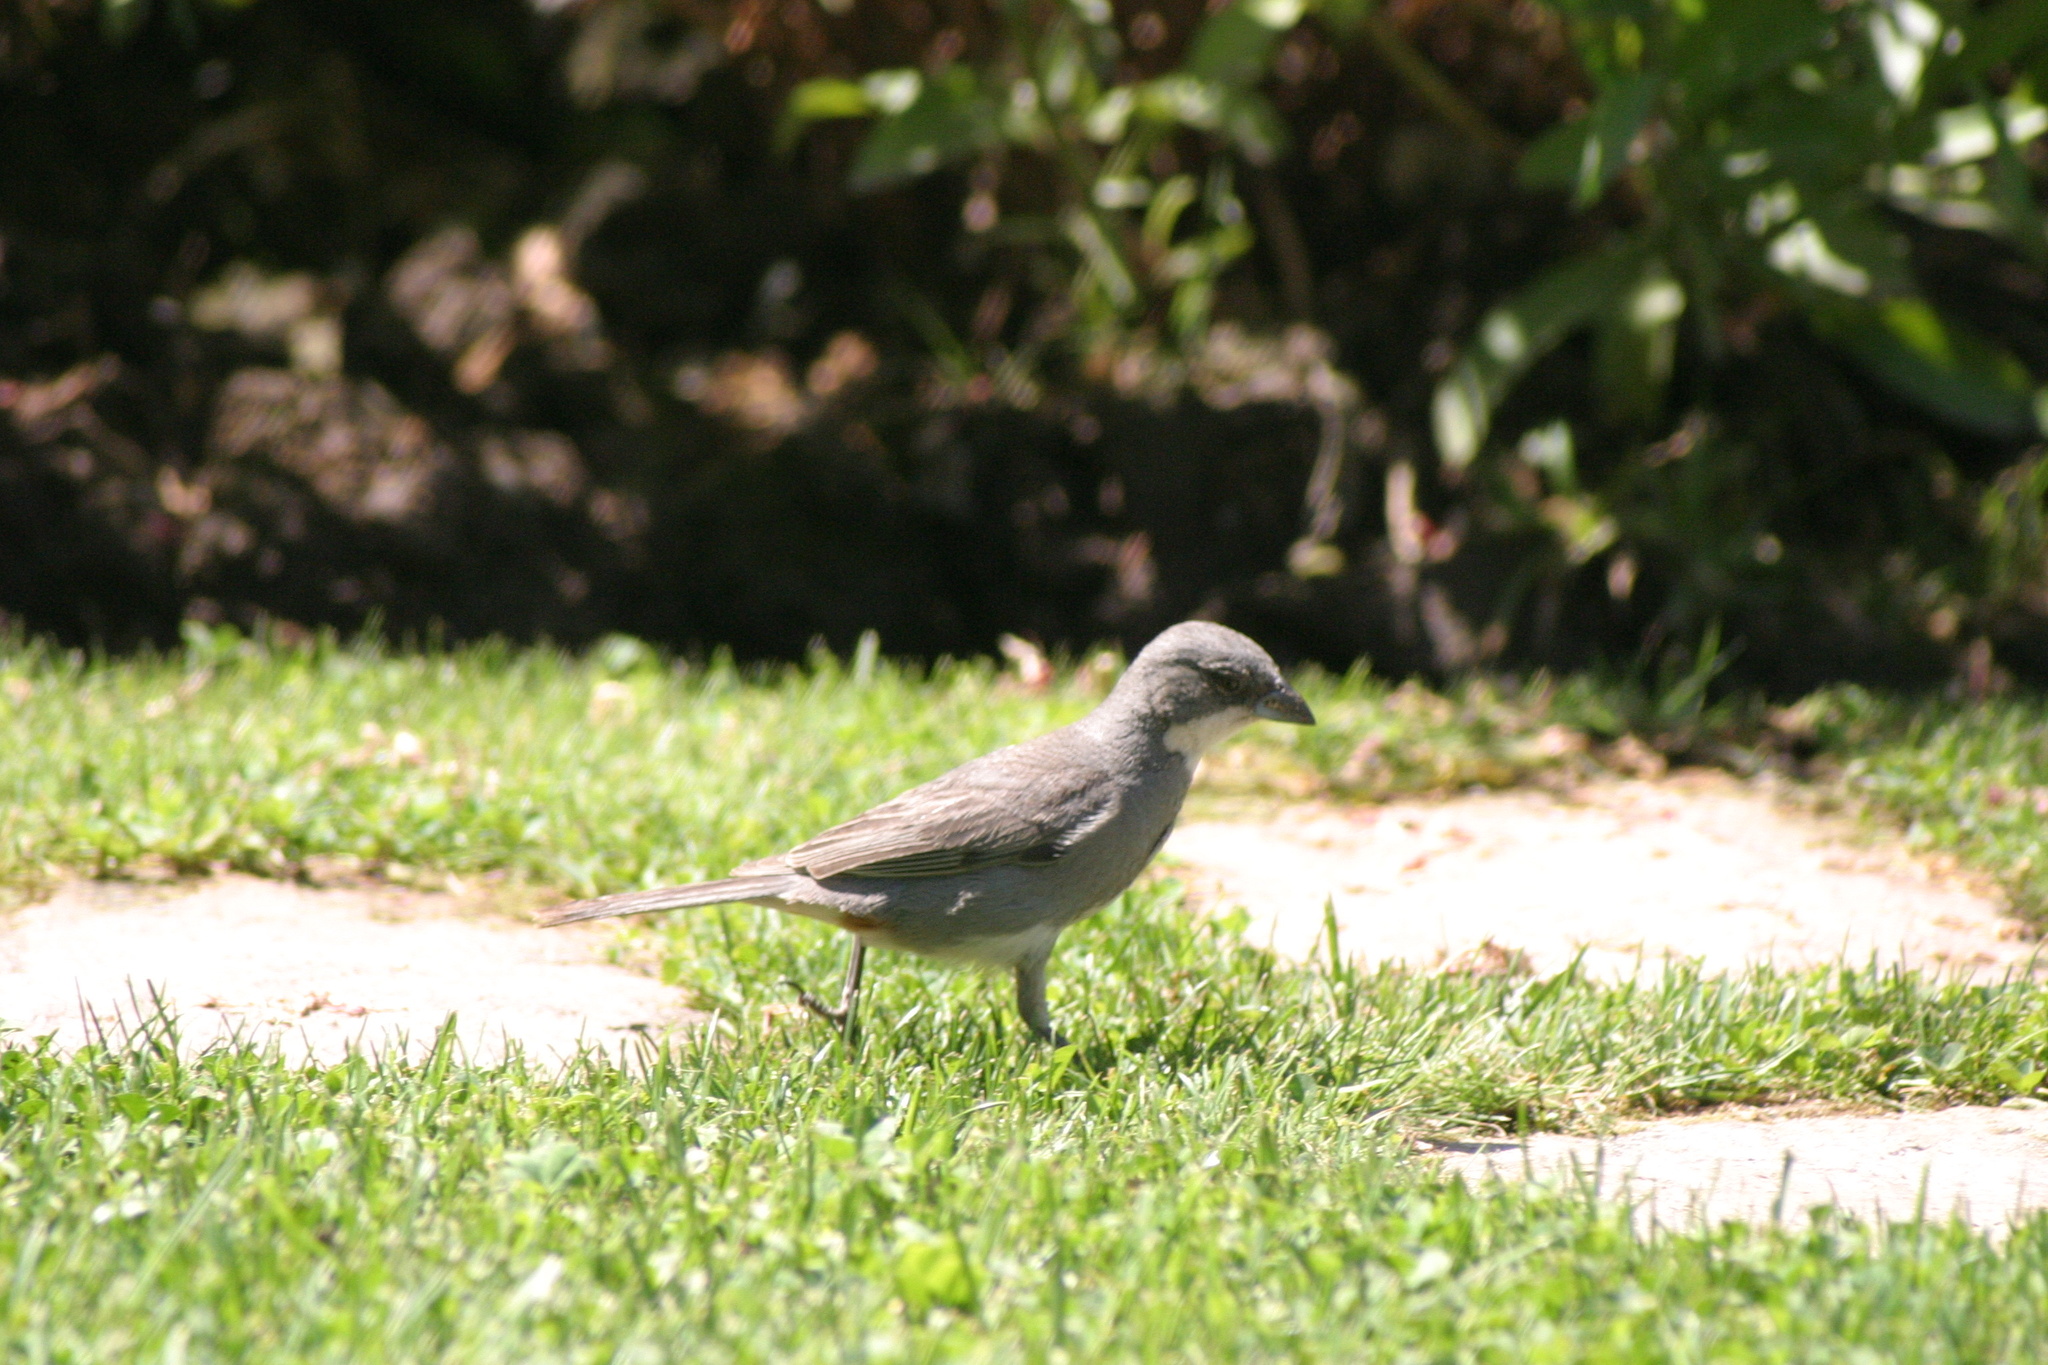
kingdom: Animalia
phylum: Chordata
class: Aves
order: Passeriformes
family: Thraupidae
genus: Diuca
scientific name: Diuca diuca
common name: Common diuca finch
